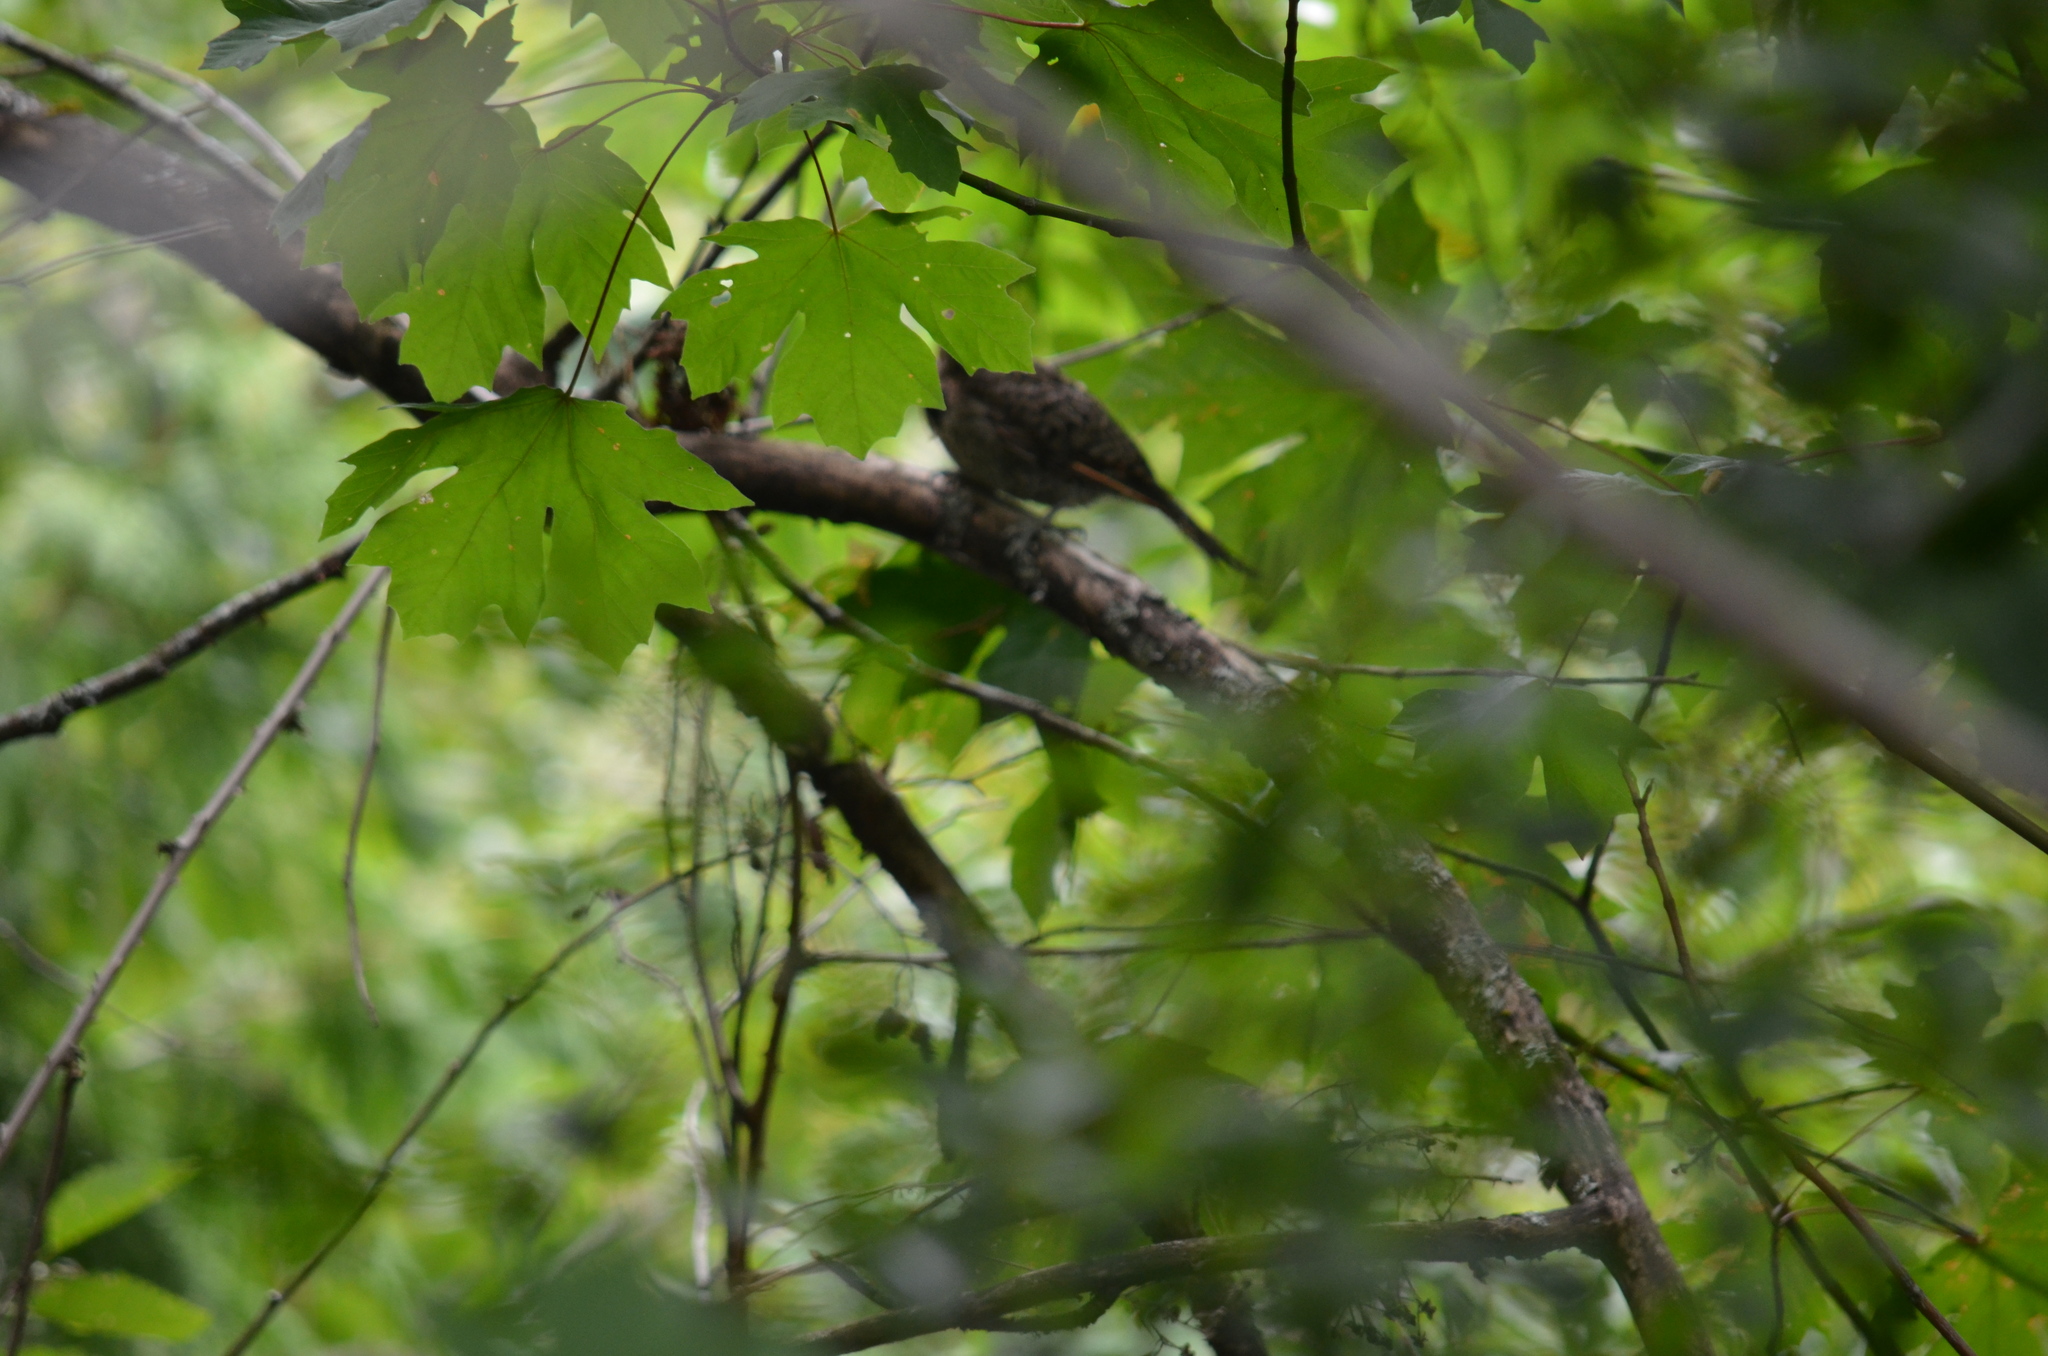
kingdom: Animalia
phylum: Chordata
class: Aves
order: Piciformes
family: Picidae
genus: Colaptes
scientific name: Colaptes auratus
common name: Northern flicker
